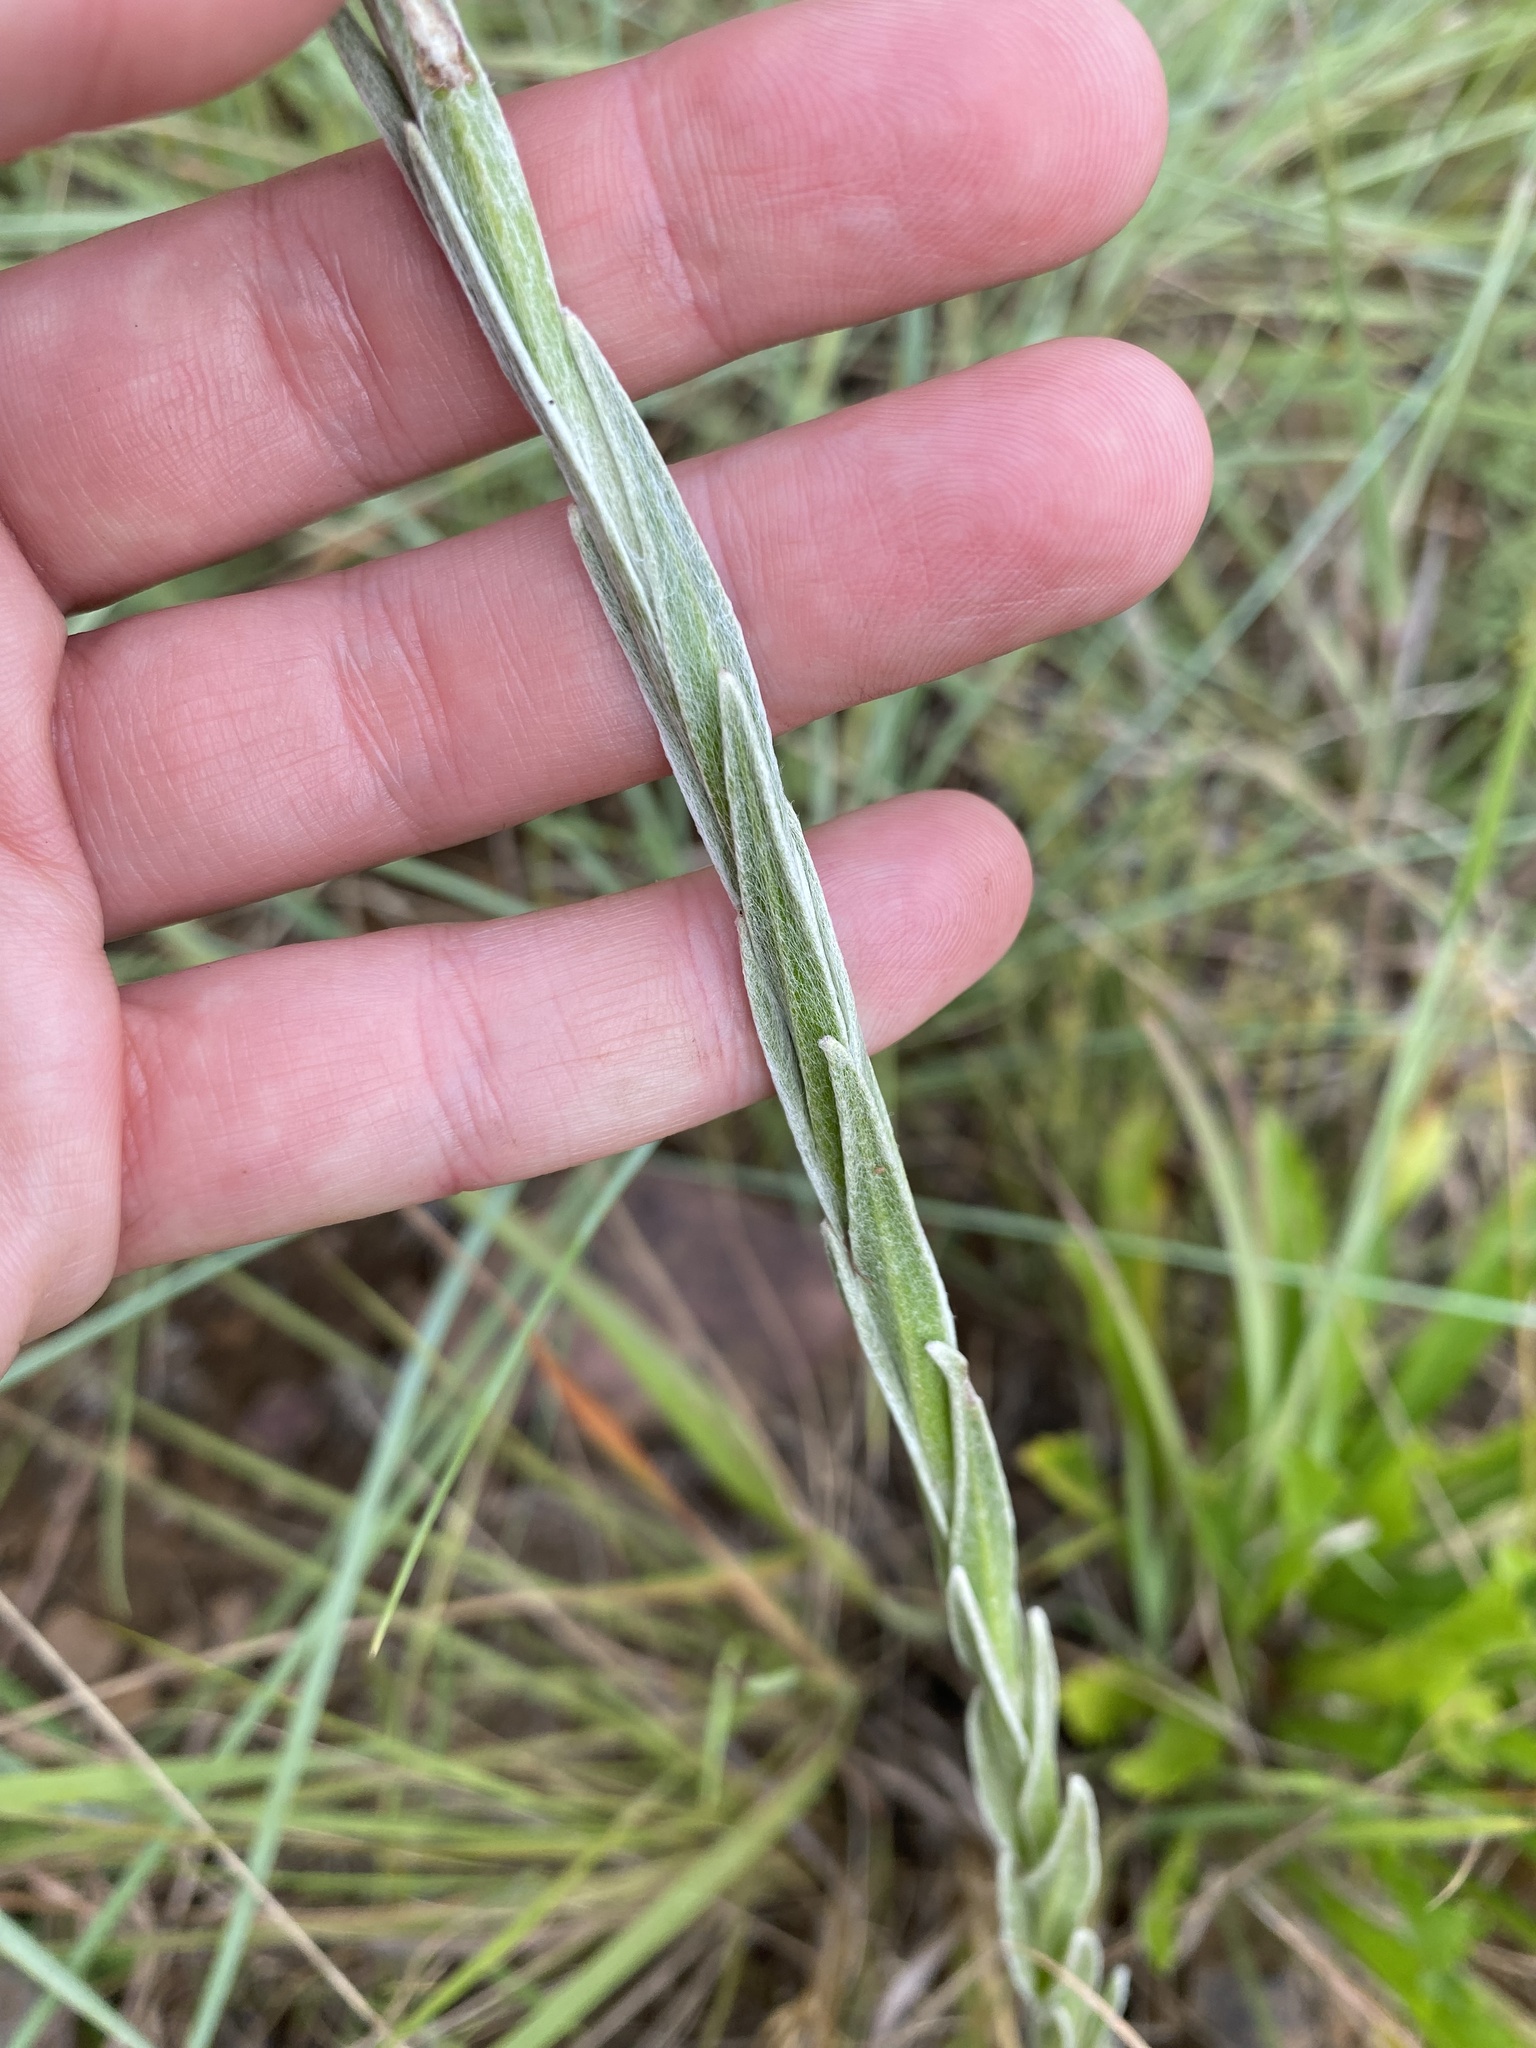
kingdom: Plantae
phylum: Tracheophyta
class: Magnoliopsida
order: Asterales
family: Asteraceae
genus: Helichrysum
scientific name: Helichrysum mixtum
